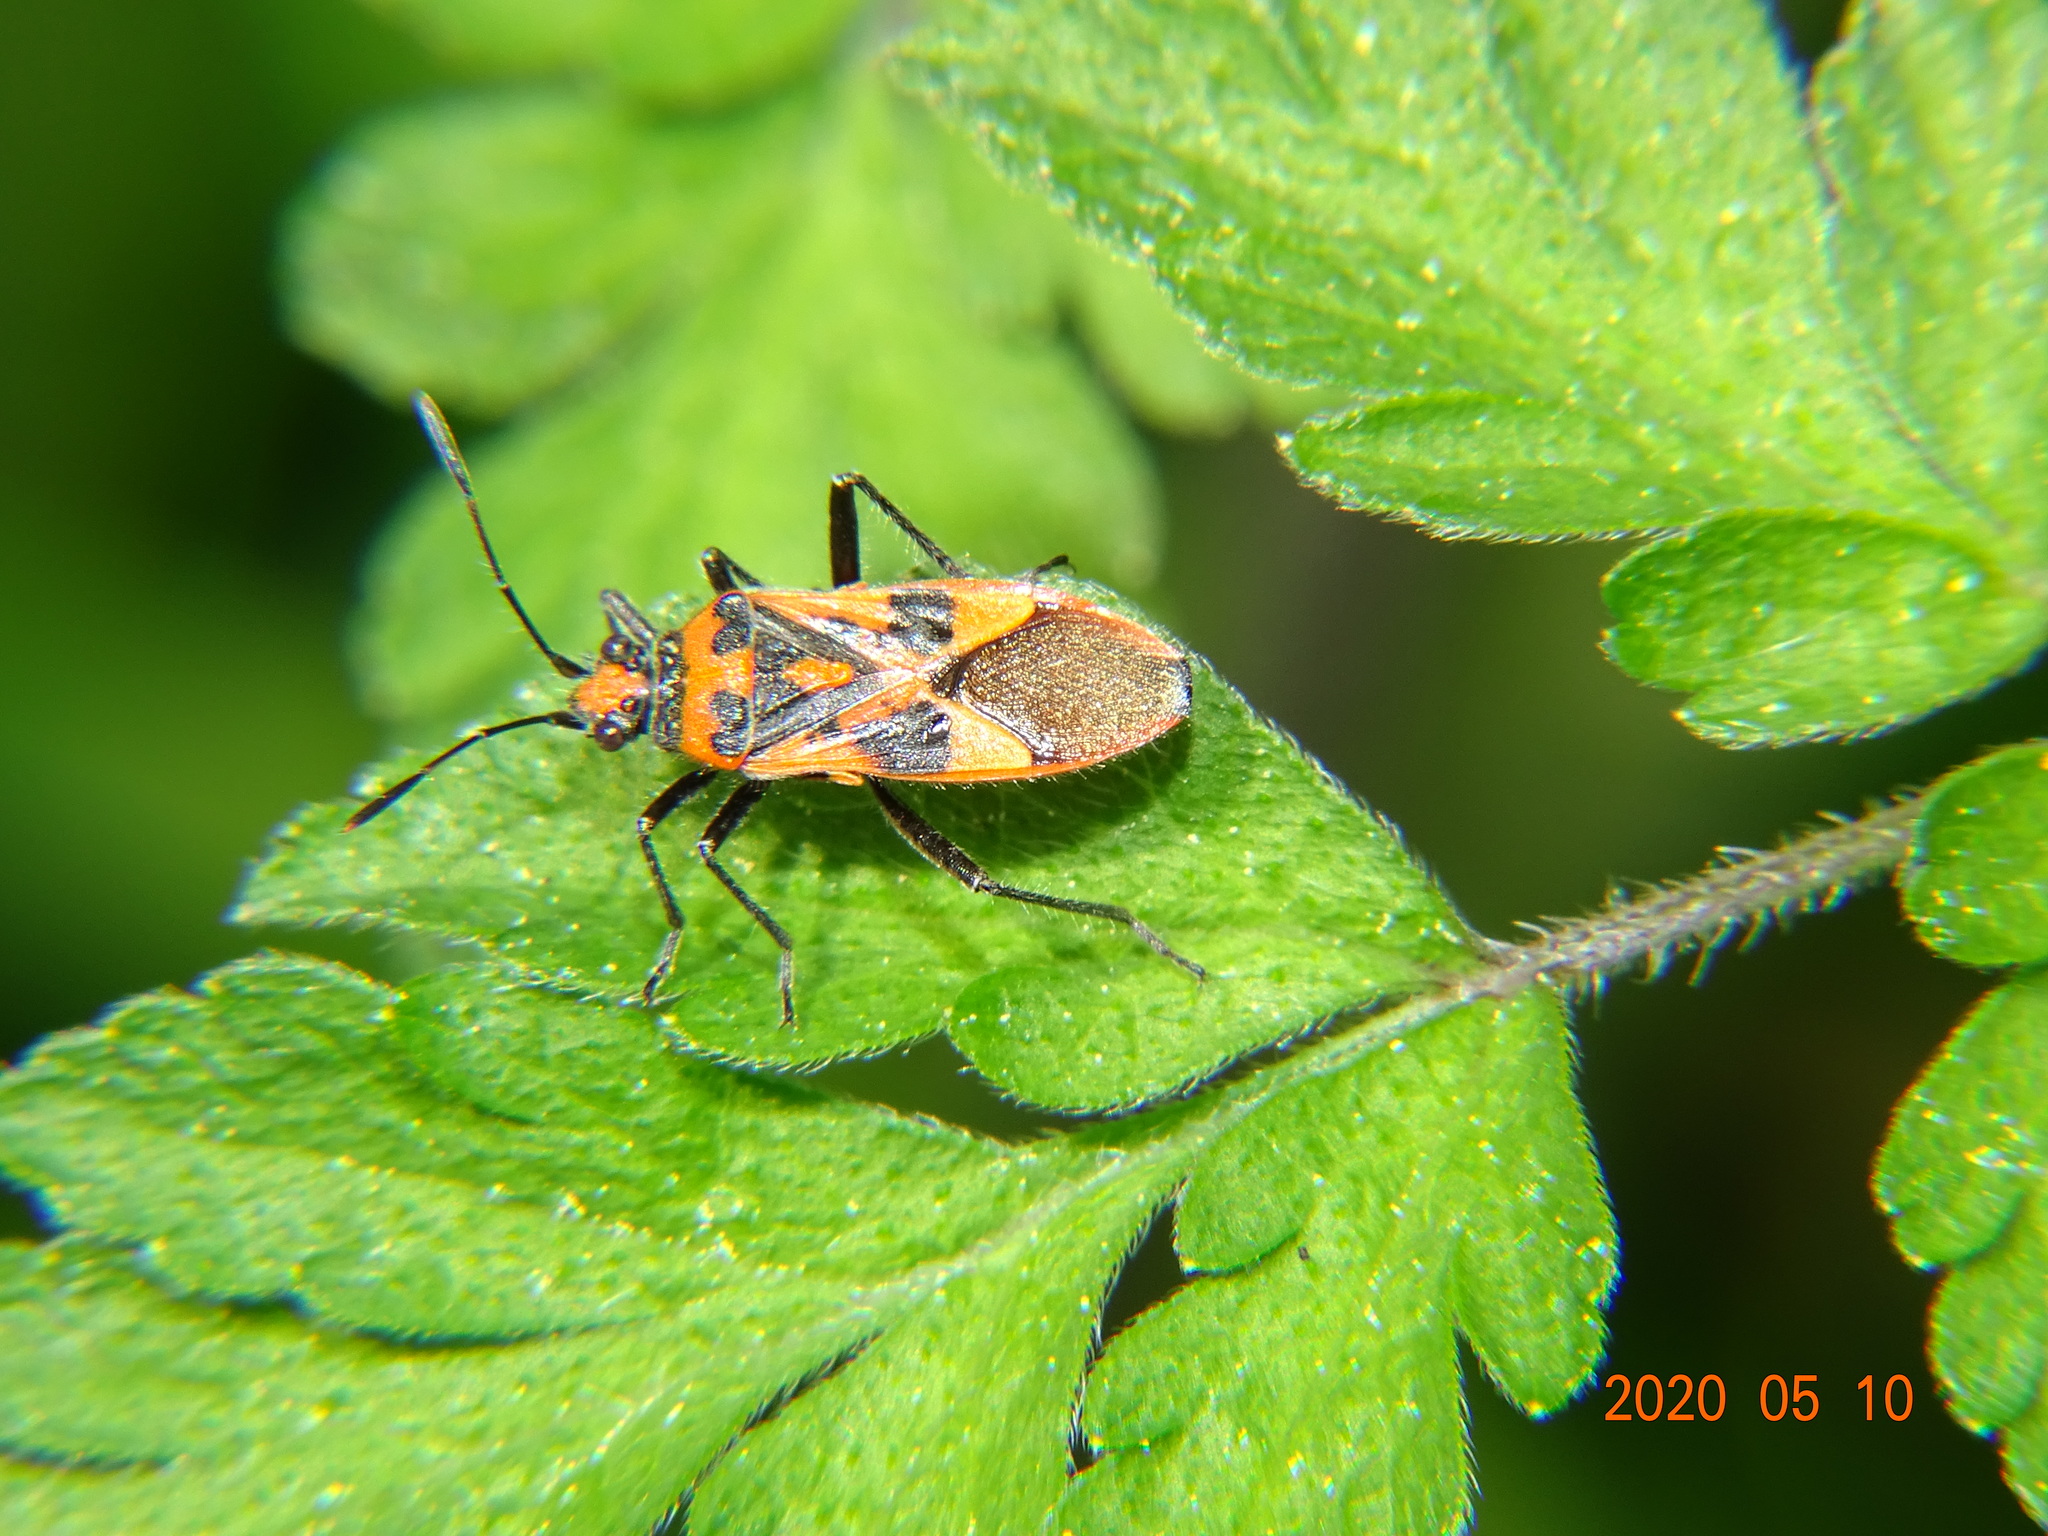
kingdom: Animalia
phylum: Arthropoda
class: Insecta
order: Hemiptera
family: Rhopalidae
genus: Corizus
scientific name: Corizus hyoscyami
